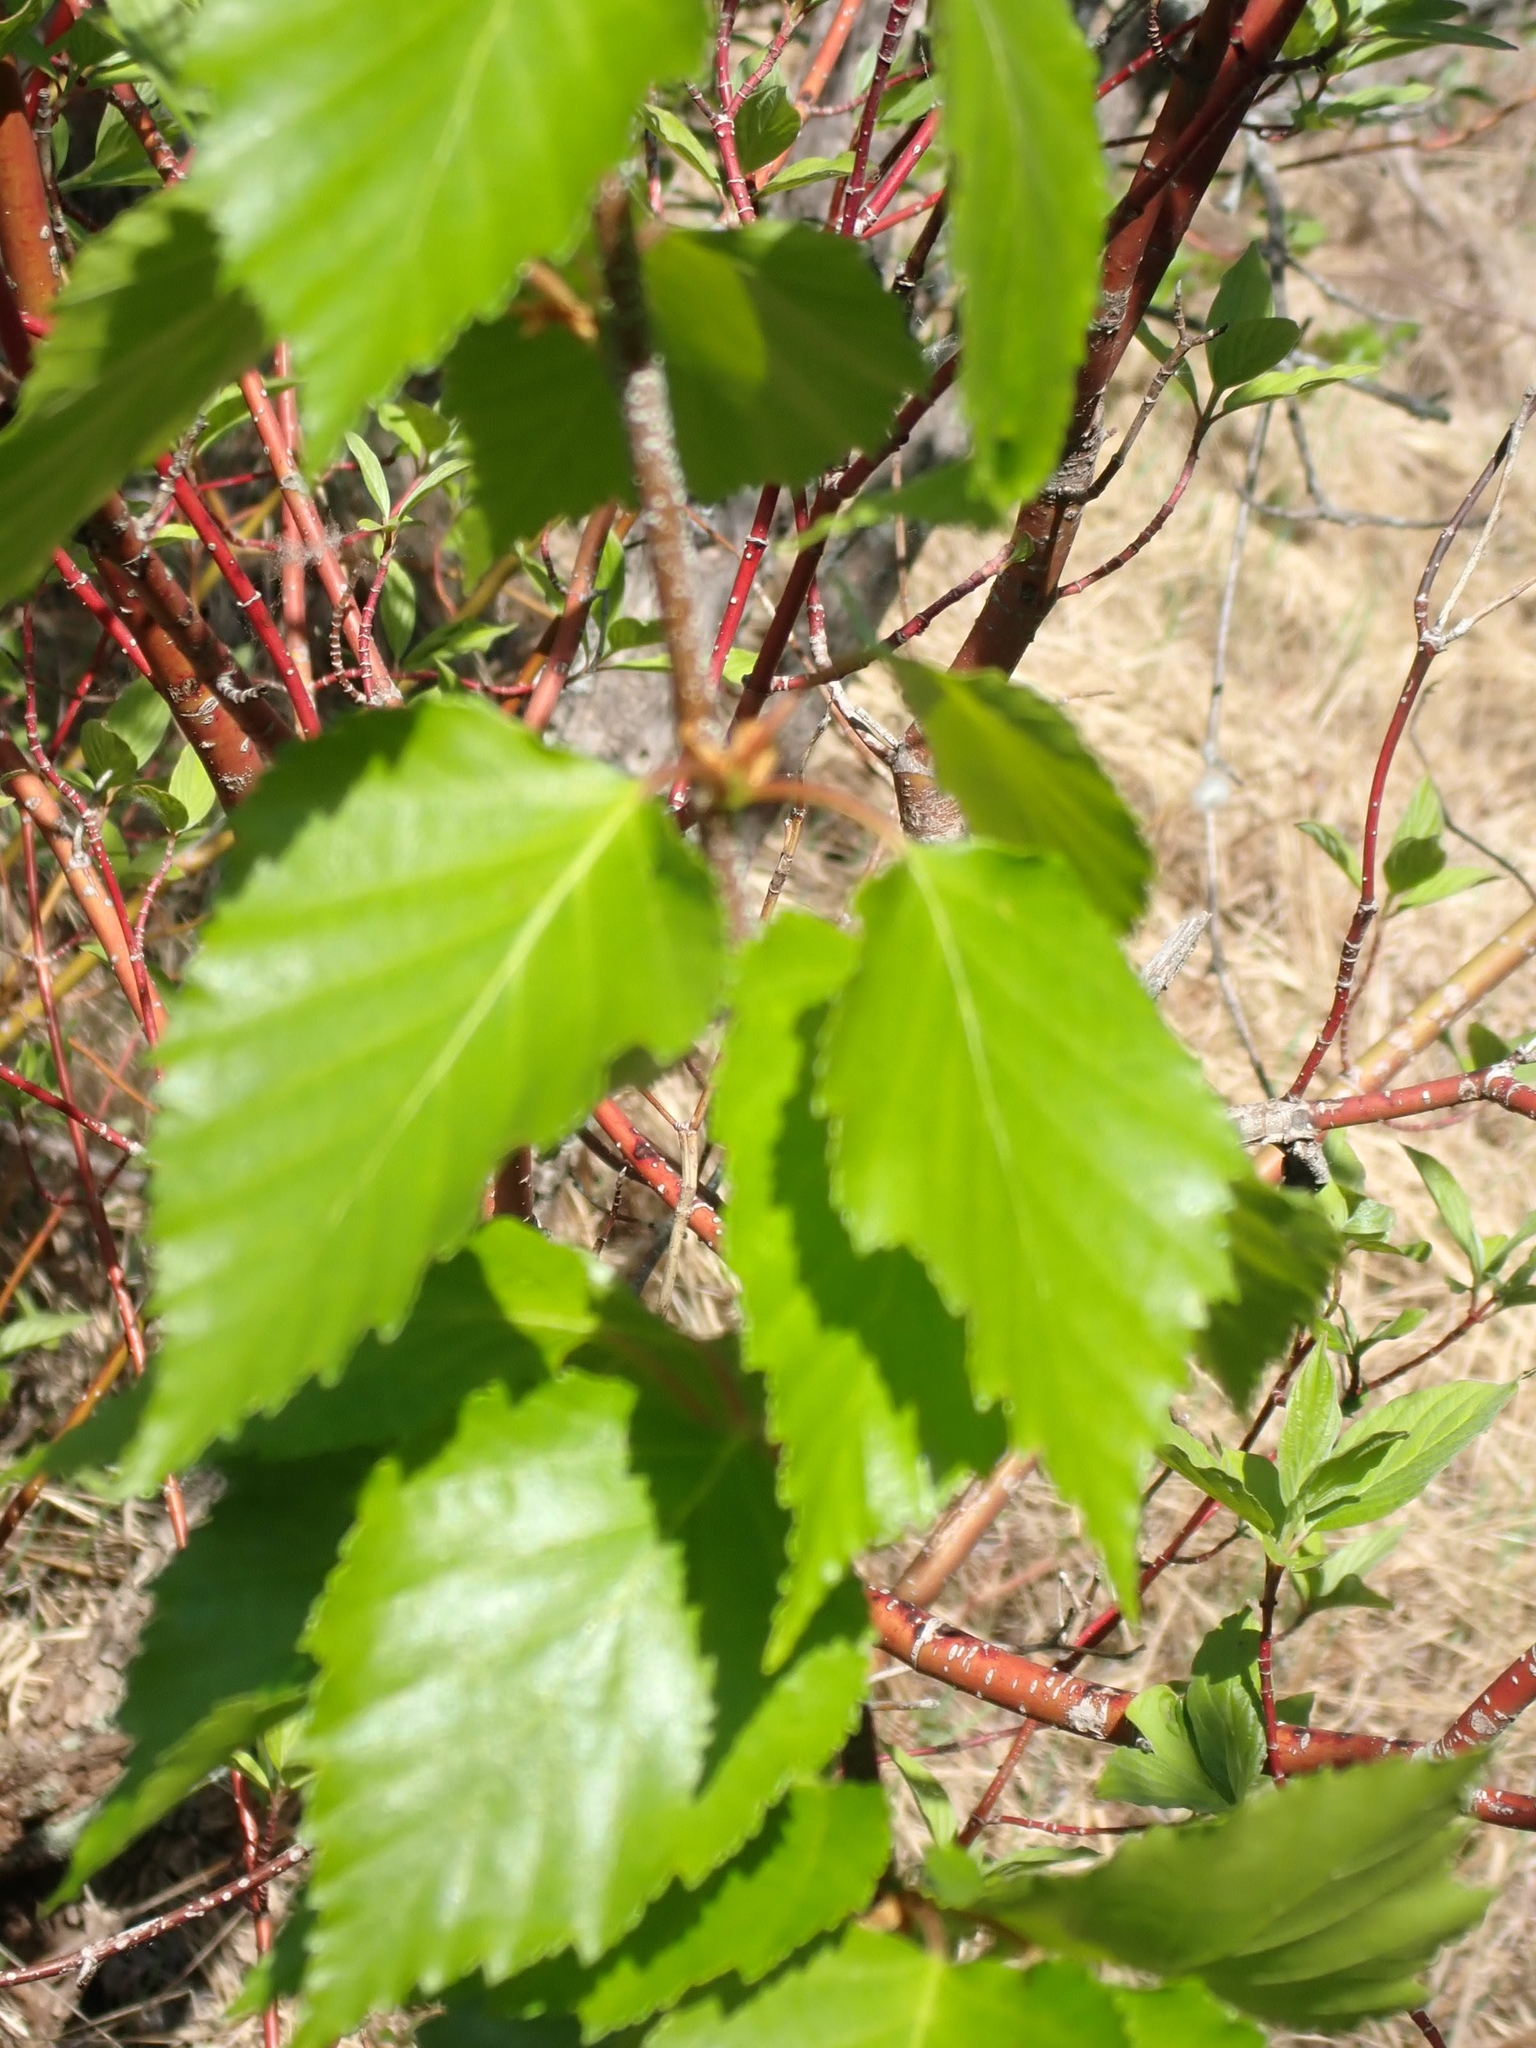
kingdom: Plantae
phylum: Tracheophyta
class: Magnoliopsida
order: Fagales
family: Betulaceae
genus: Betula
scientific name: Betula papyrifera
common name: Paper birch
